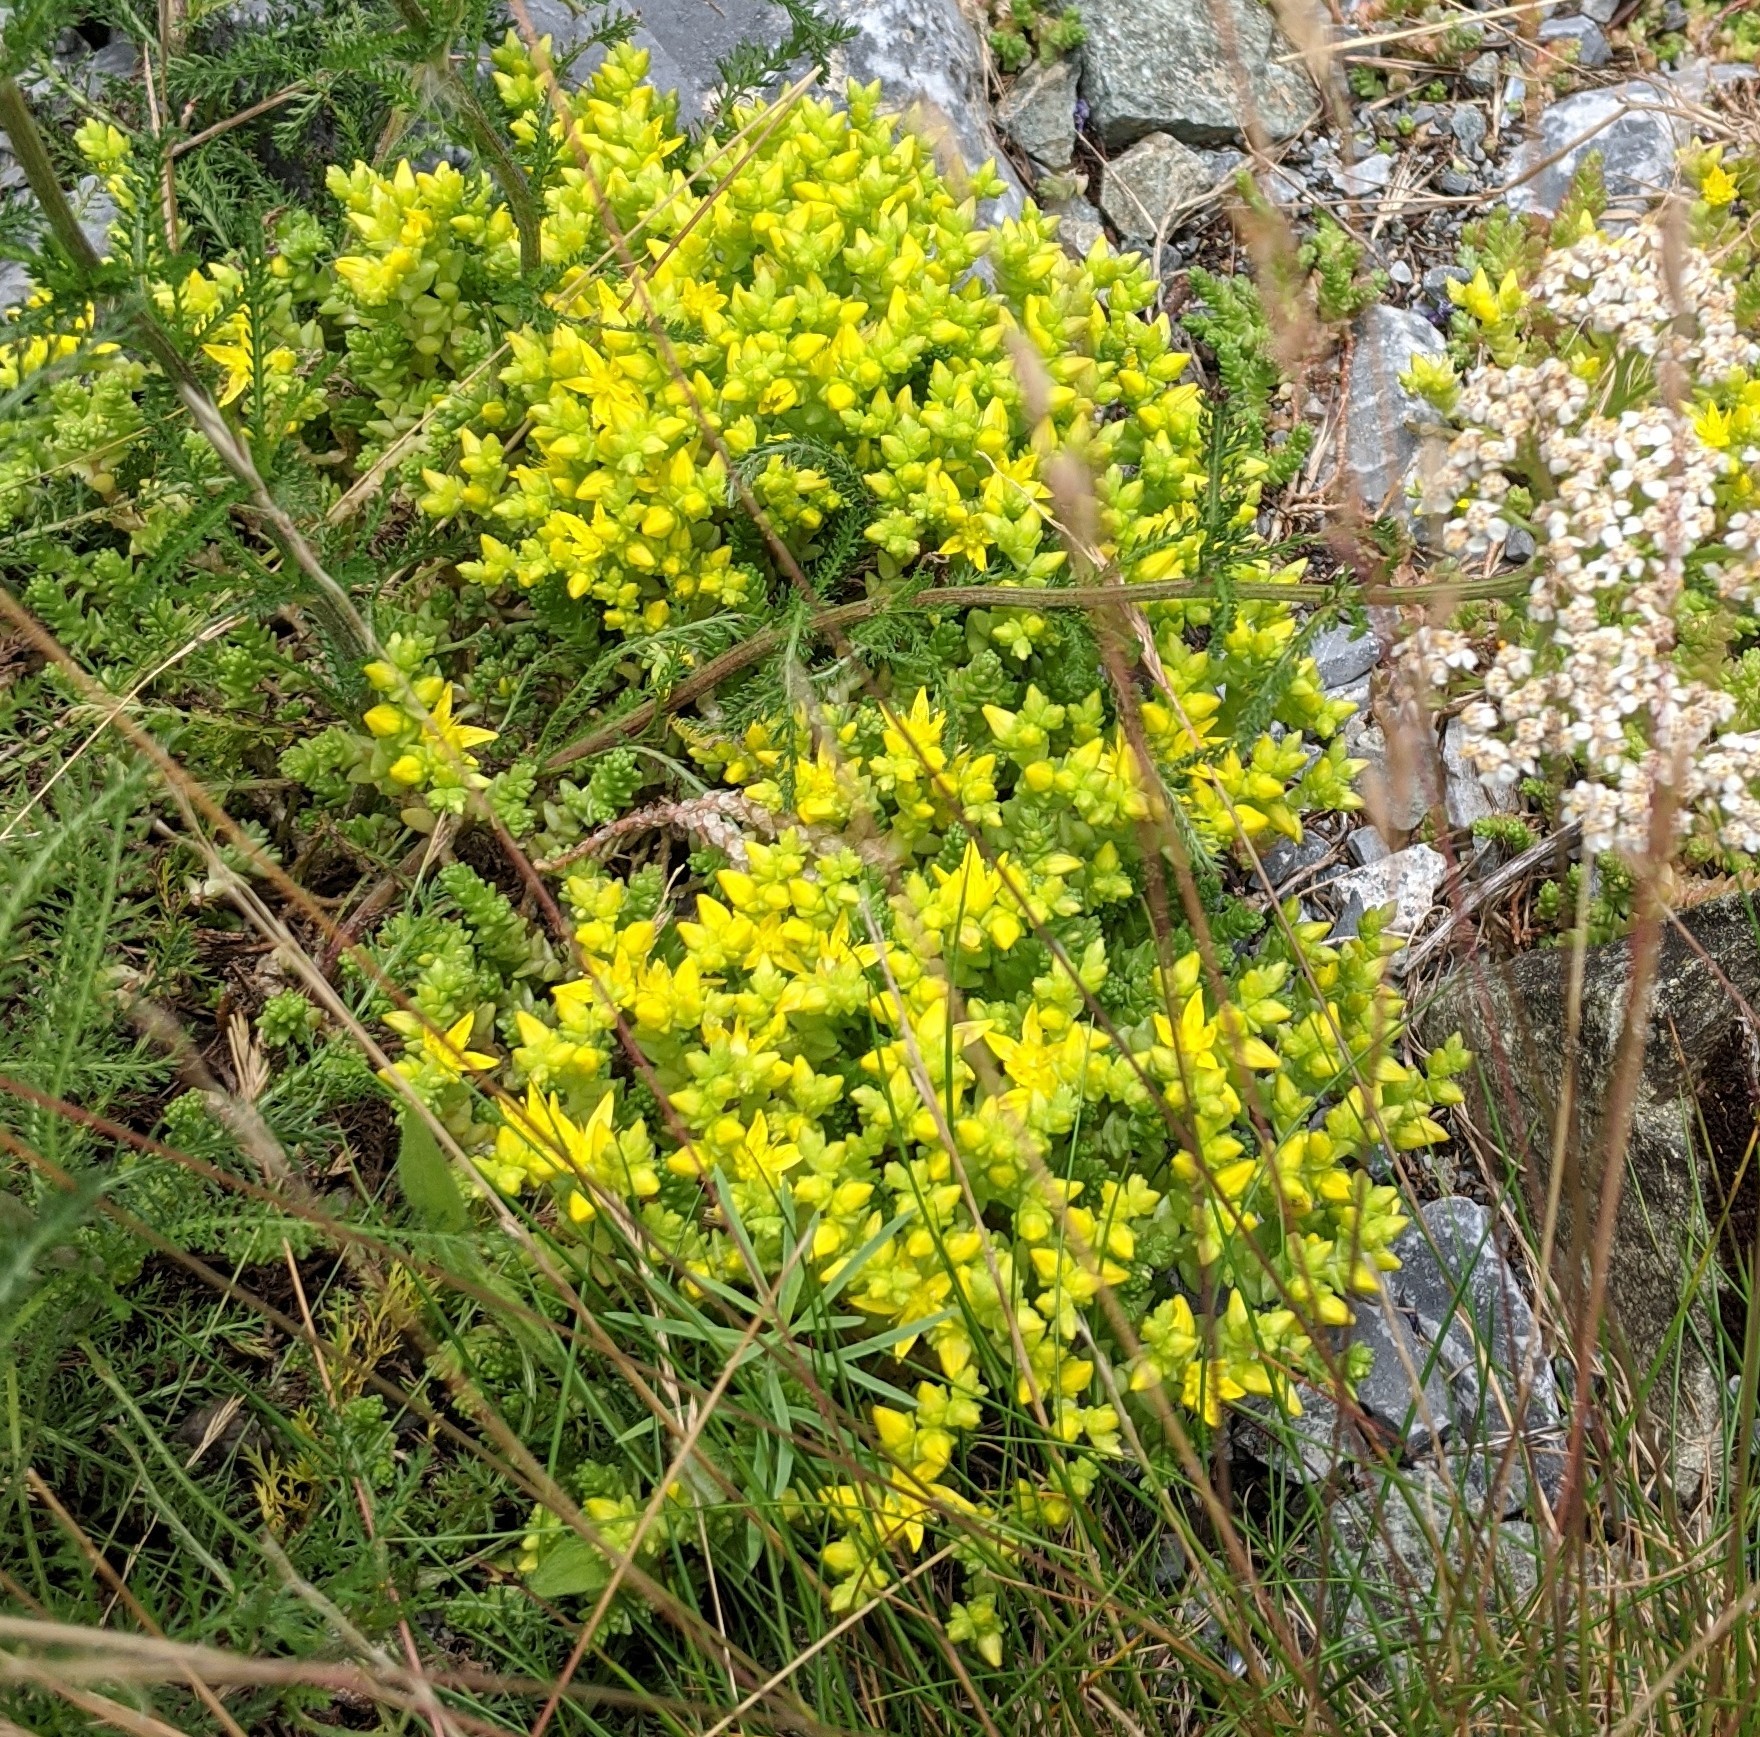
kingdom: Plantae
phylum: Tracheophyta
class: Magnoliopsida
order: Saxifragales
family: Crassulaceae
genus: Sedum
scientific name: Sedum acre
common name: Biting stonecrop
